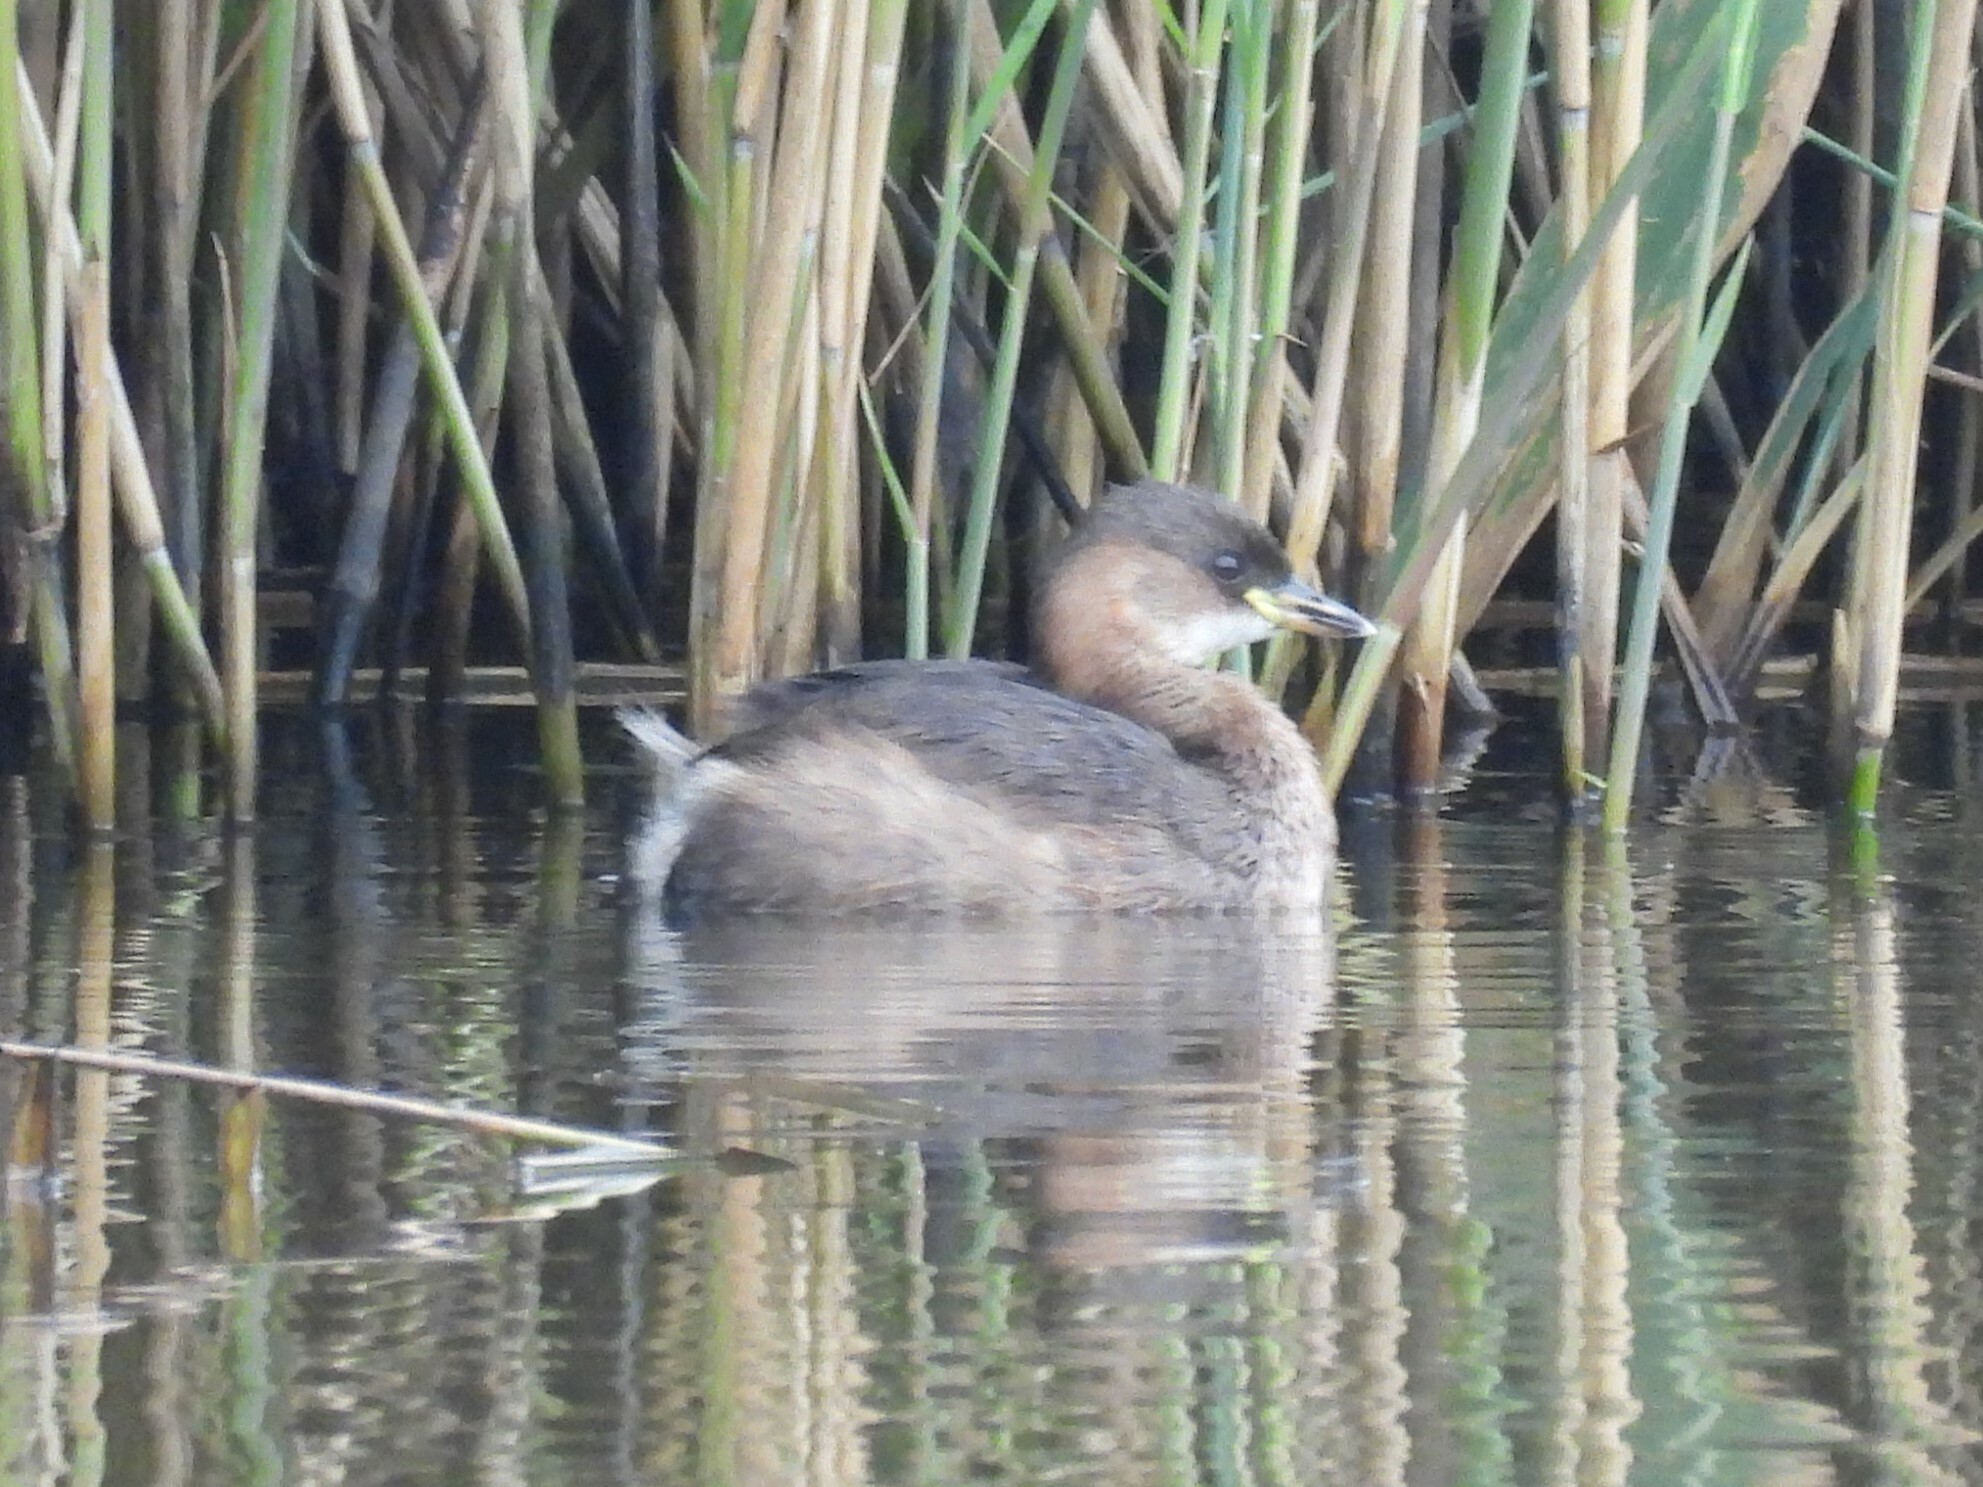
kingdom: Animalia
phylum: Chordata
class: Aves
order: Podicipediformes
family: Podicipedidae
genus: Tachybaptus
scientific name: Tachybaptus ruficollis
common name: Little grebe
